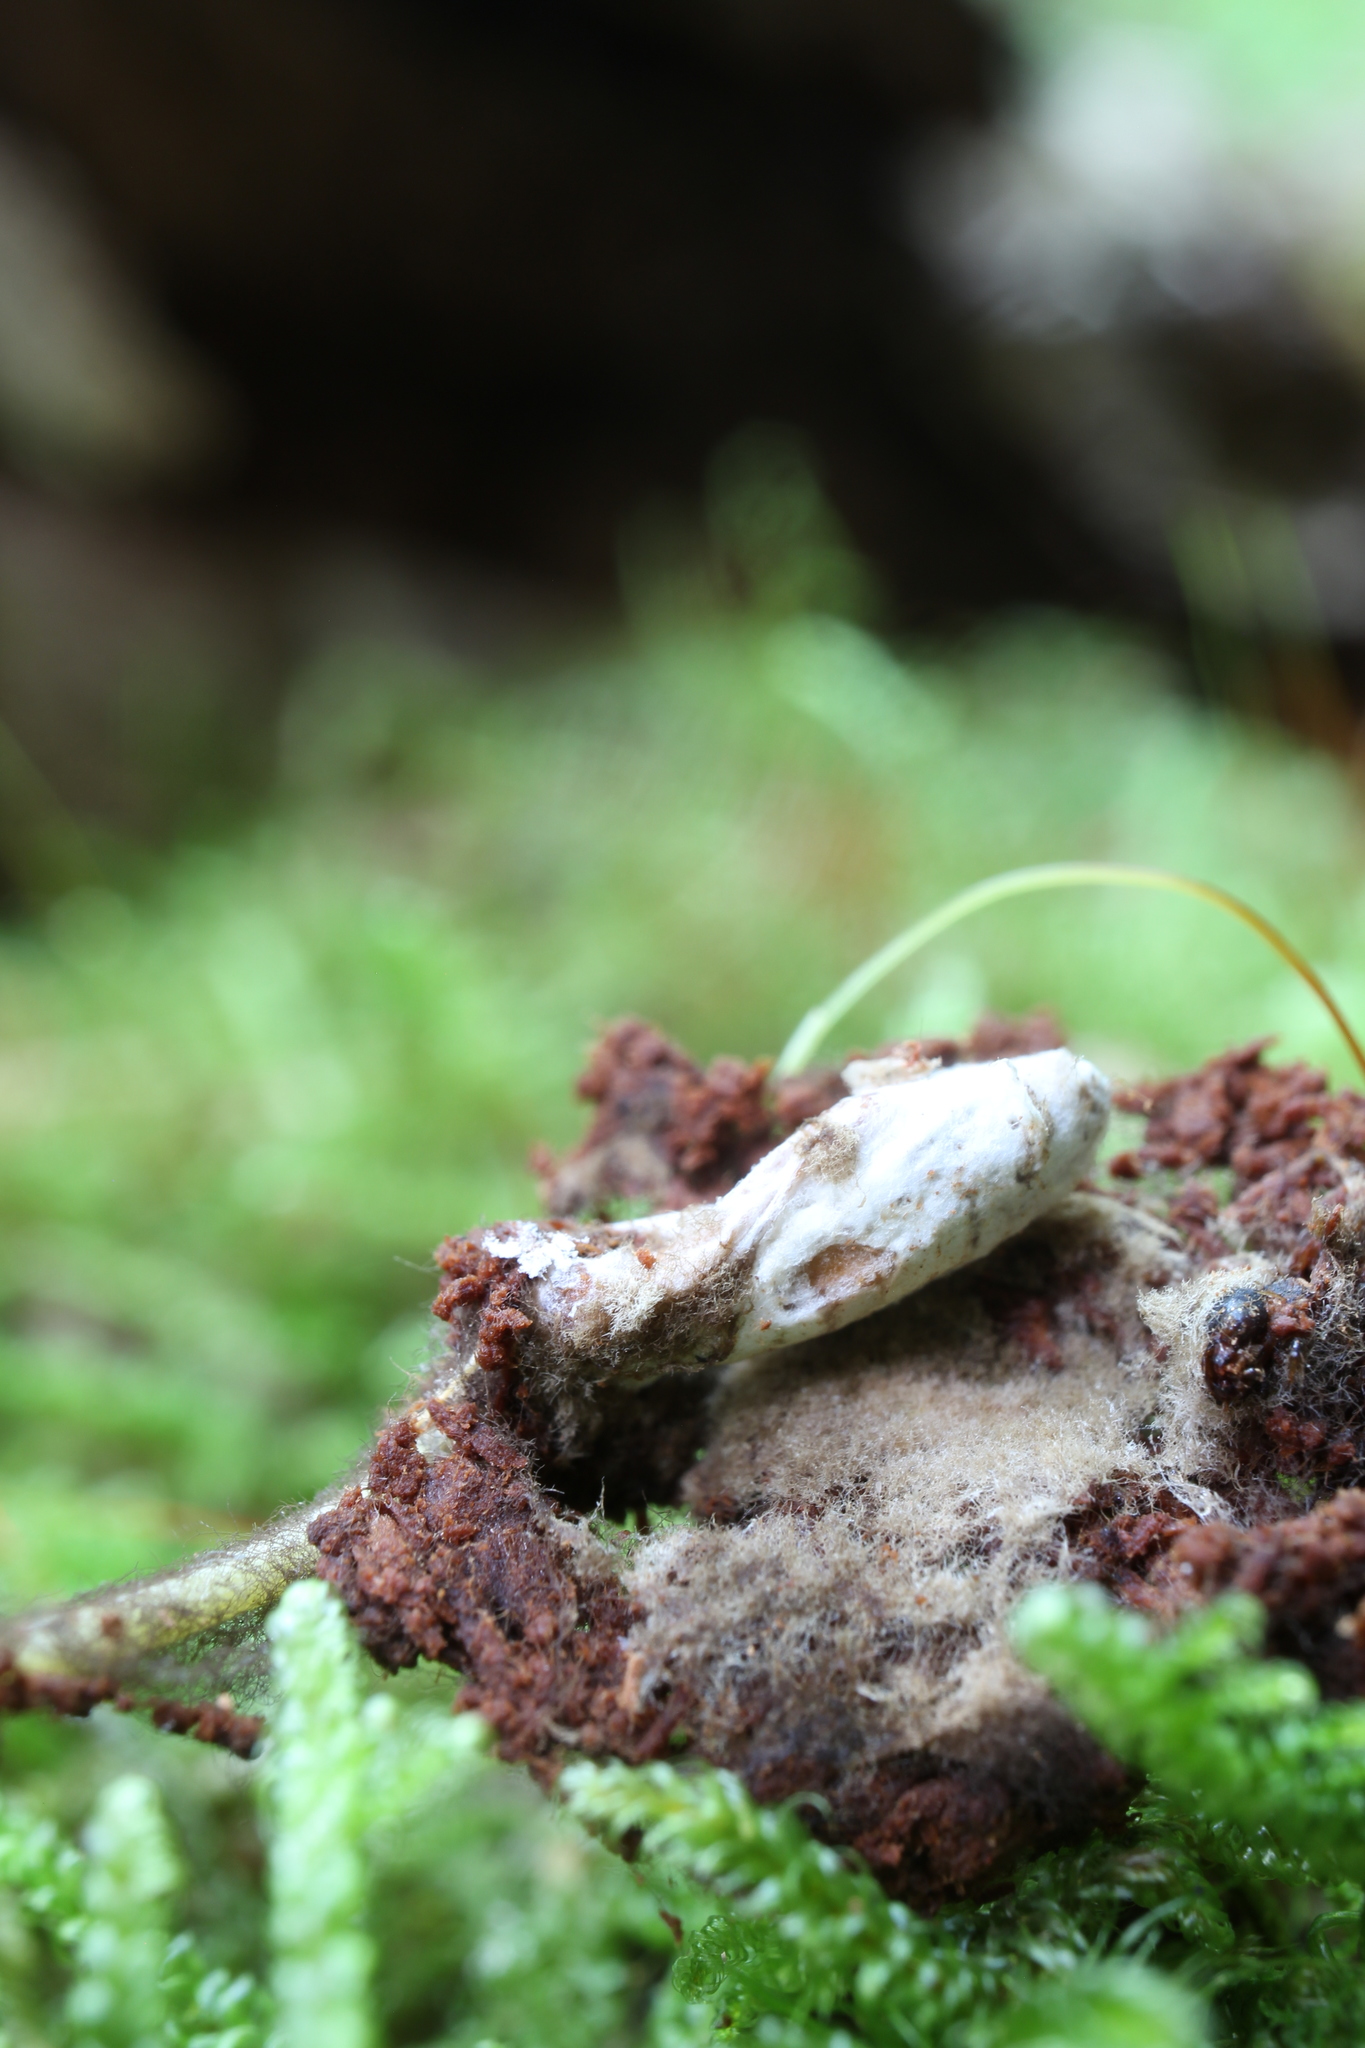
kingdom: Fungi
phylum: Ascomycota
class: Sordariomycetes
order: Hypocreales
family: Cordycipitaceae
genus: Cordyceps
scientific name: Cordyceps farinosa
